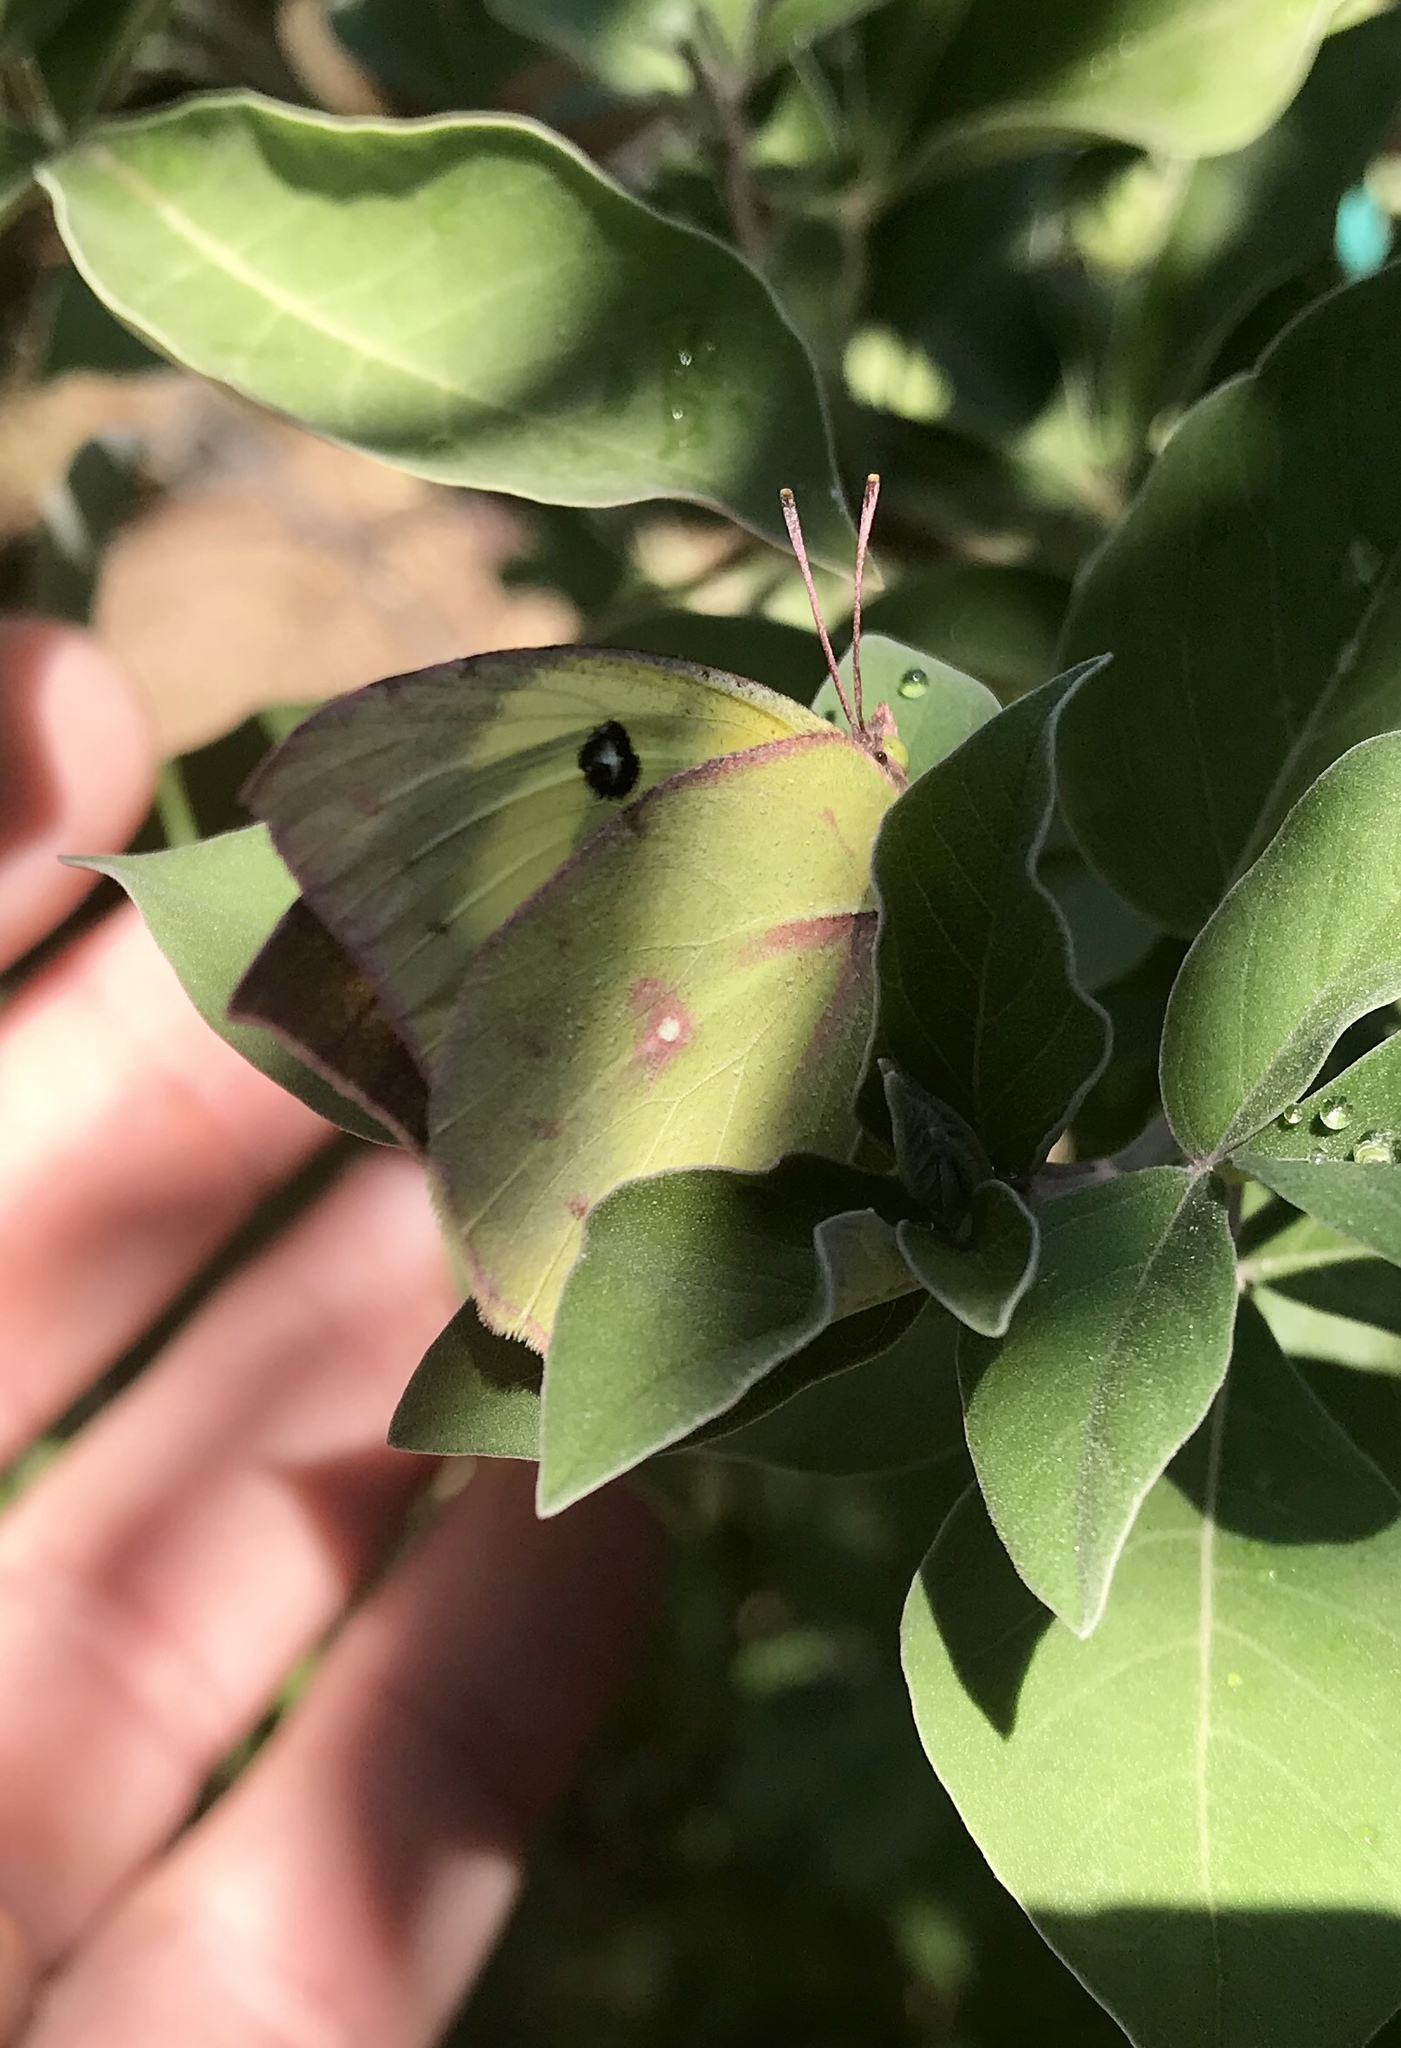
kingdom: Animalia
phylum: Arthropoda
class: Insecta
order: Lepidoptera
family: Pieridae
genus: Zerene
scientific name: Zerene cesonia
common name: Southern dogface
